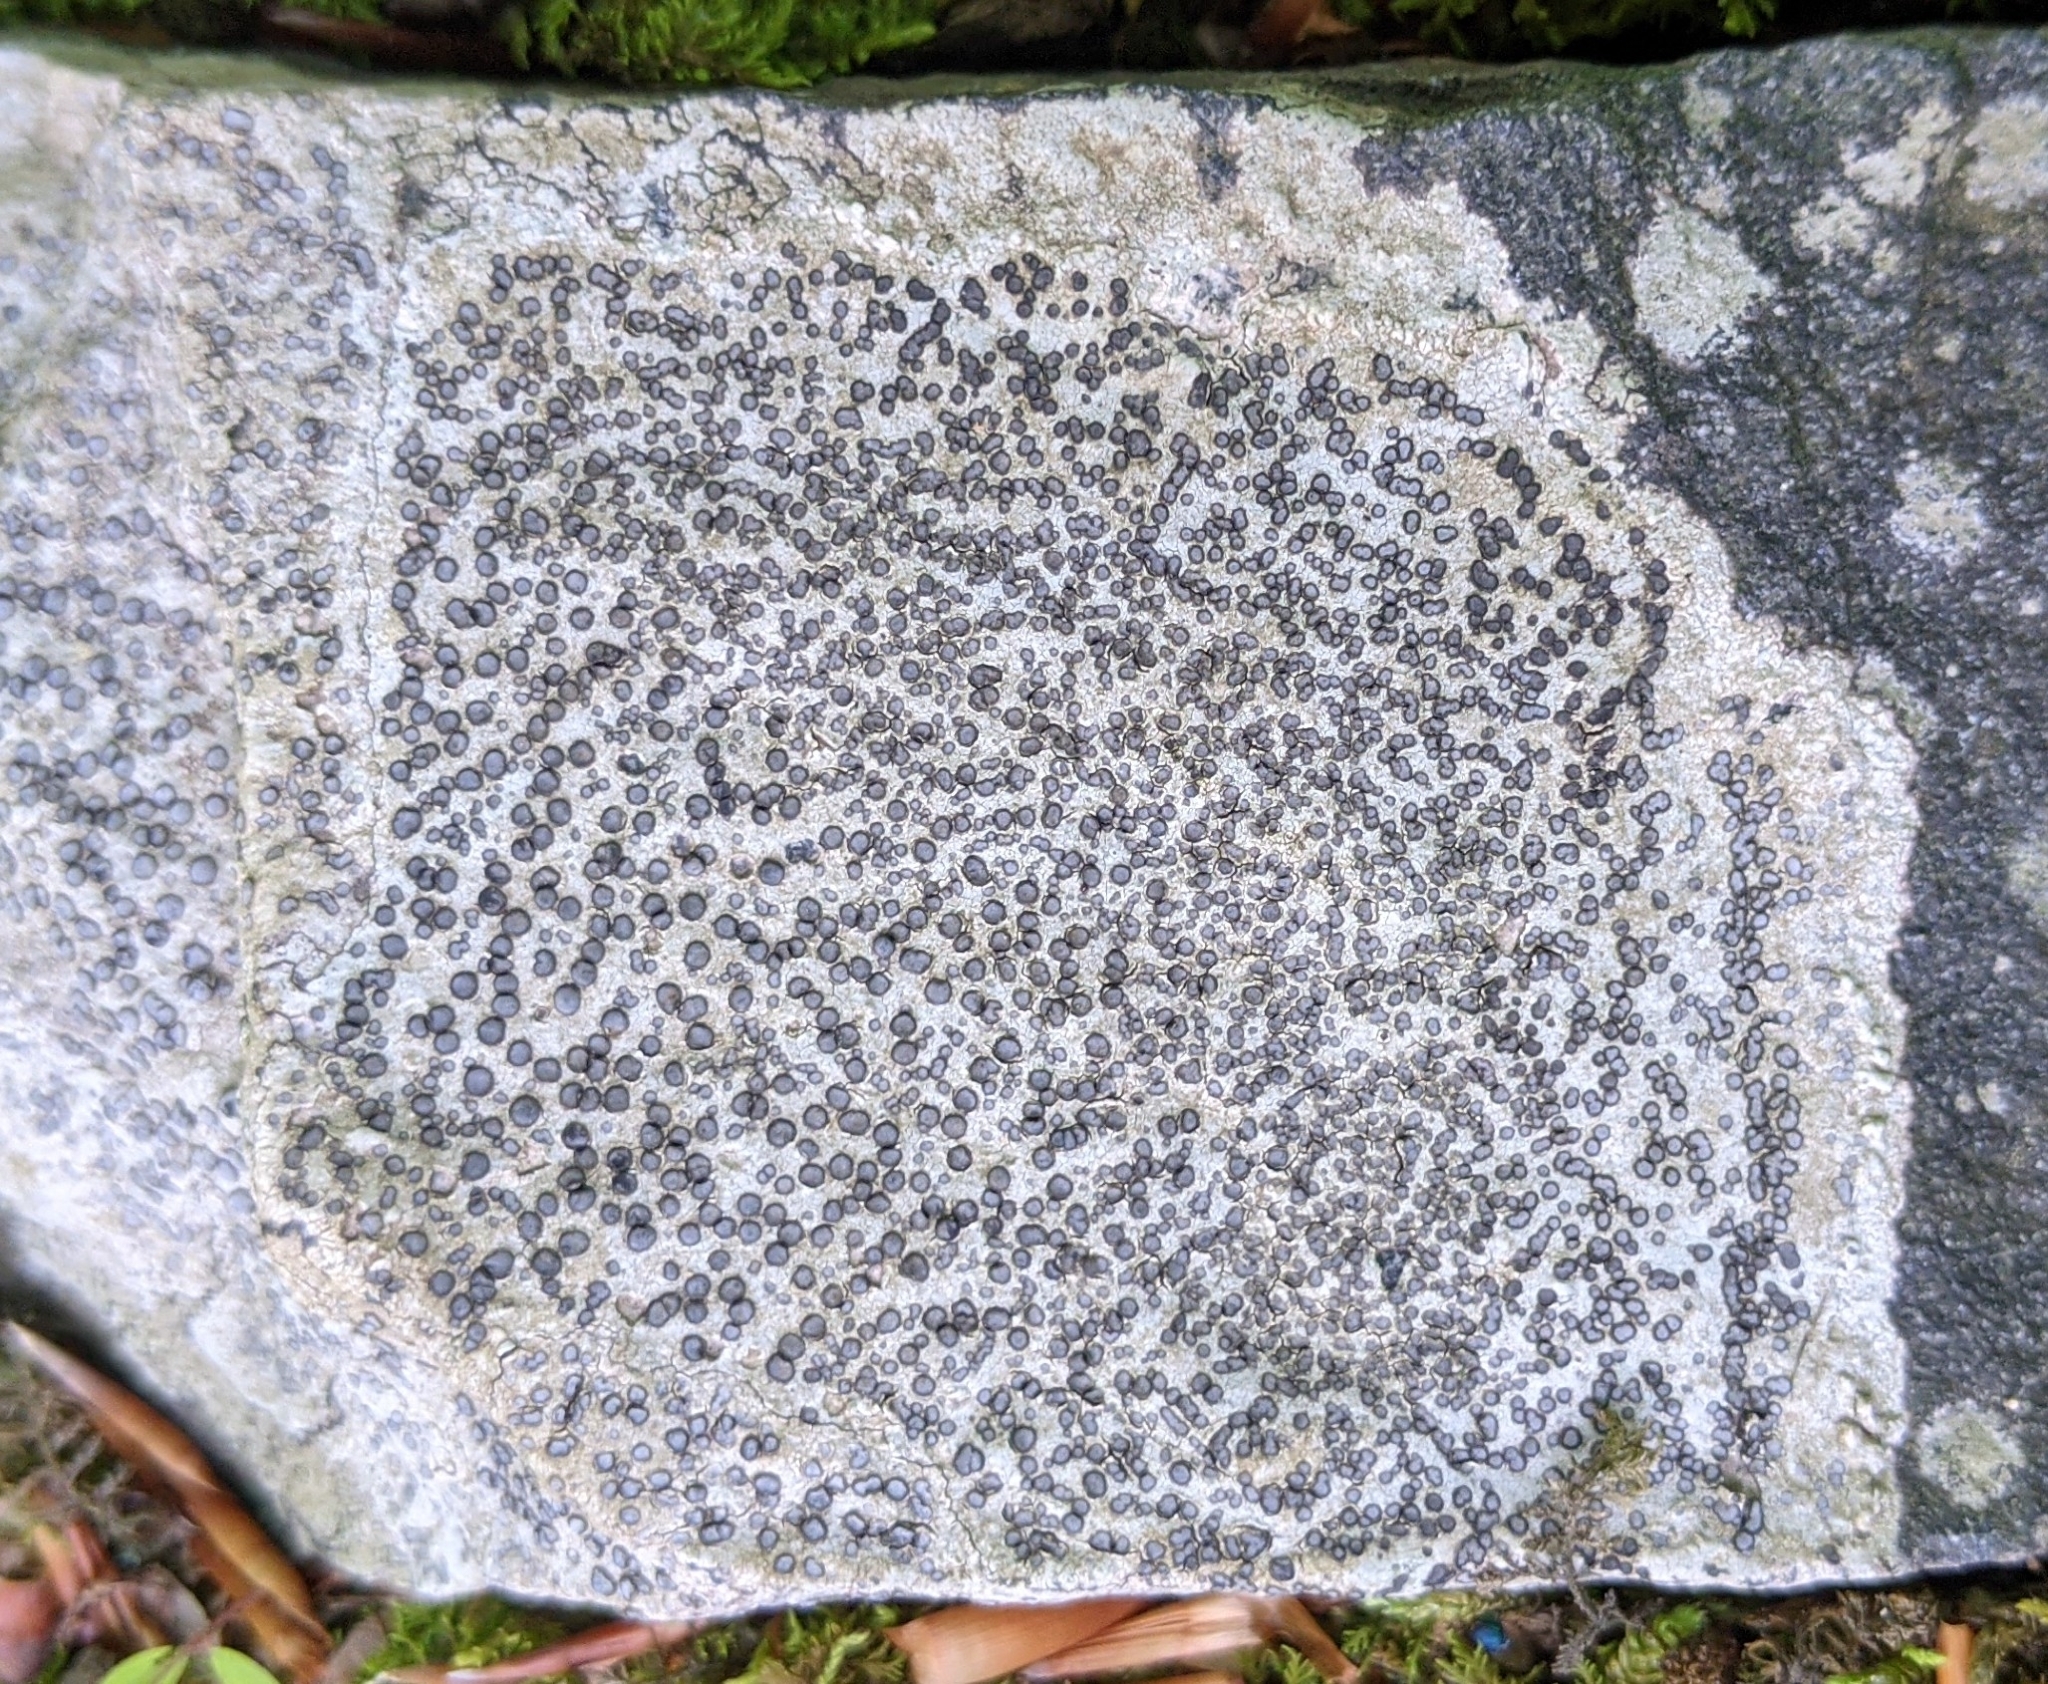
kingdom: Fungi
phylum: Ascomycota
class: Lecanoromycetes
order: Lecideales
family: Lecideaceae
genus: Porpidia
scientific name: Porpidia albocaerulescens
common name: Smokey-eyed boulder lichen
